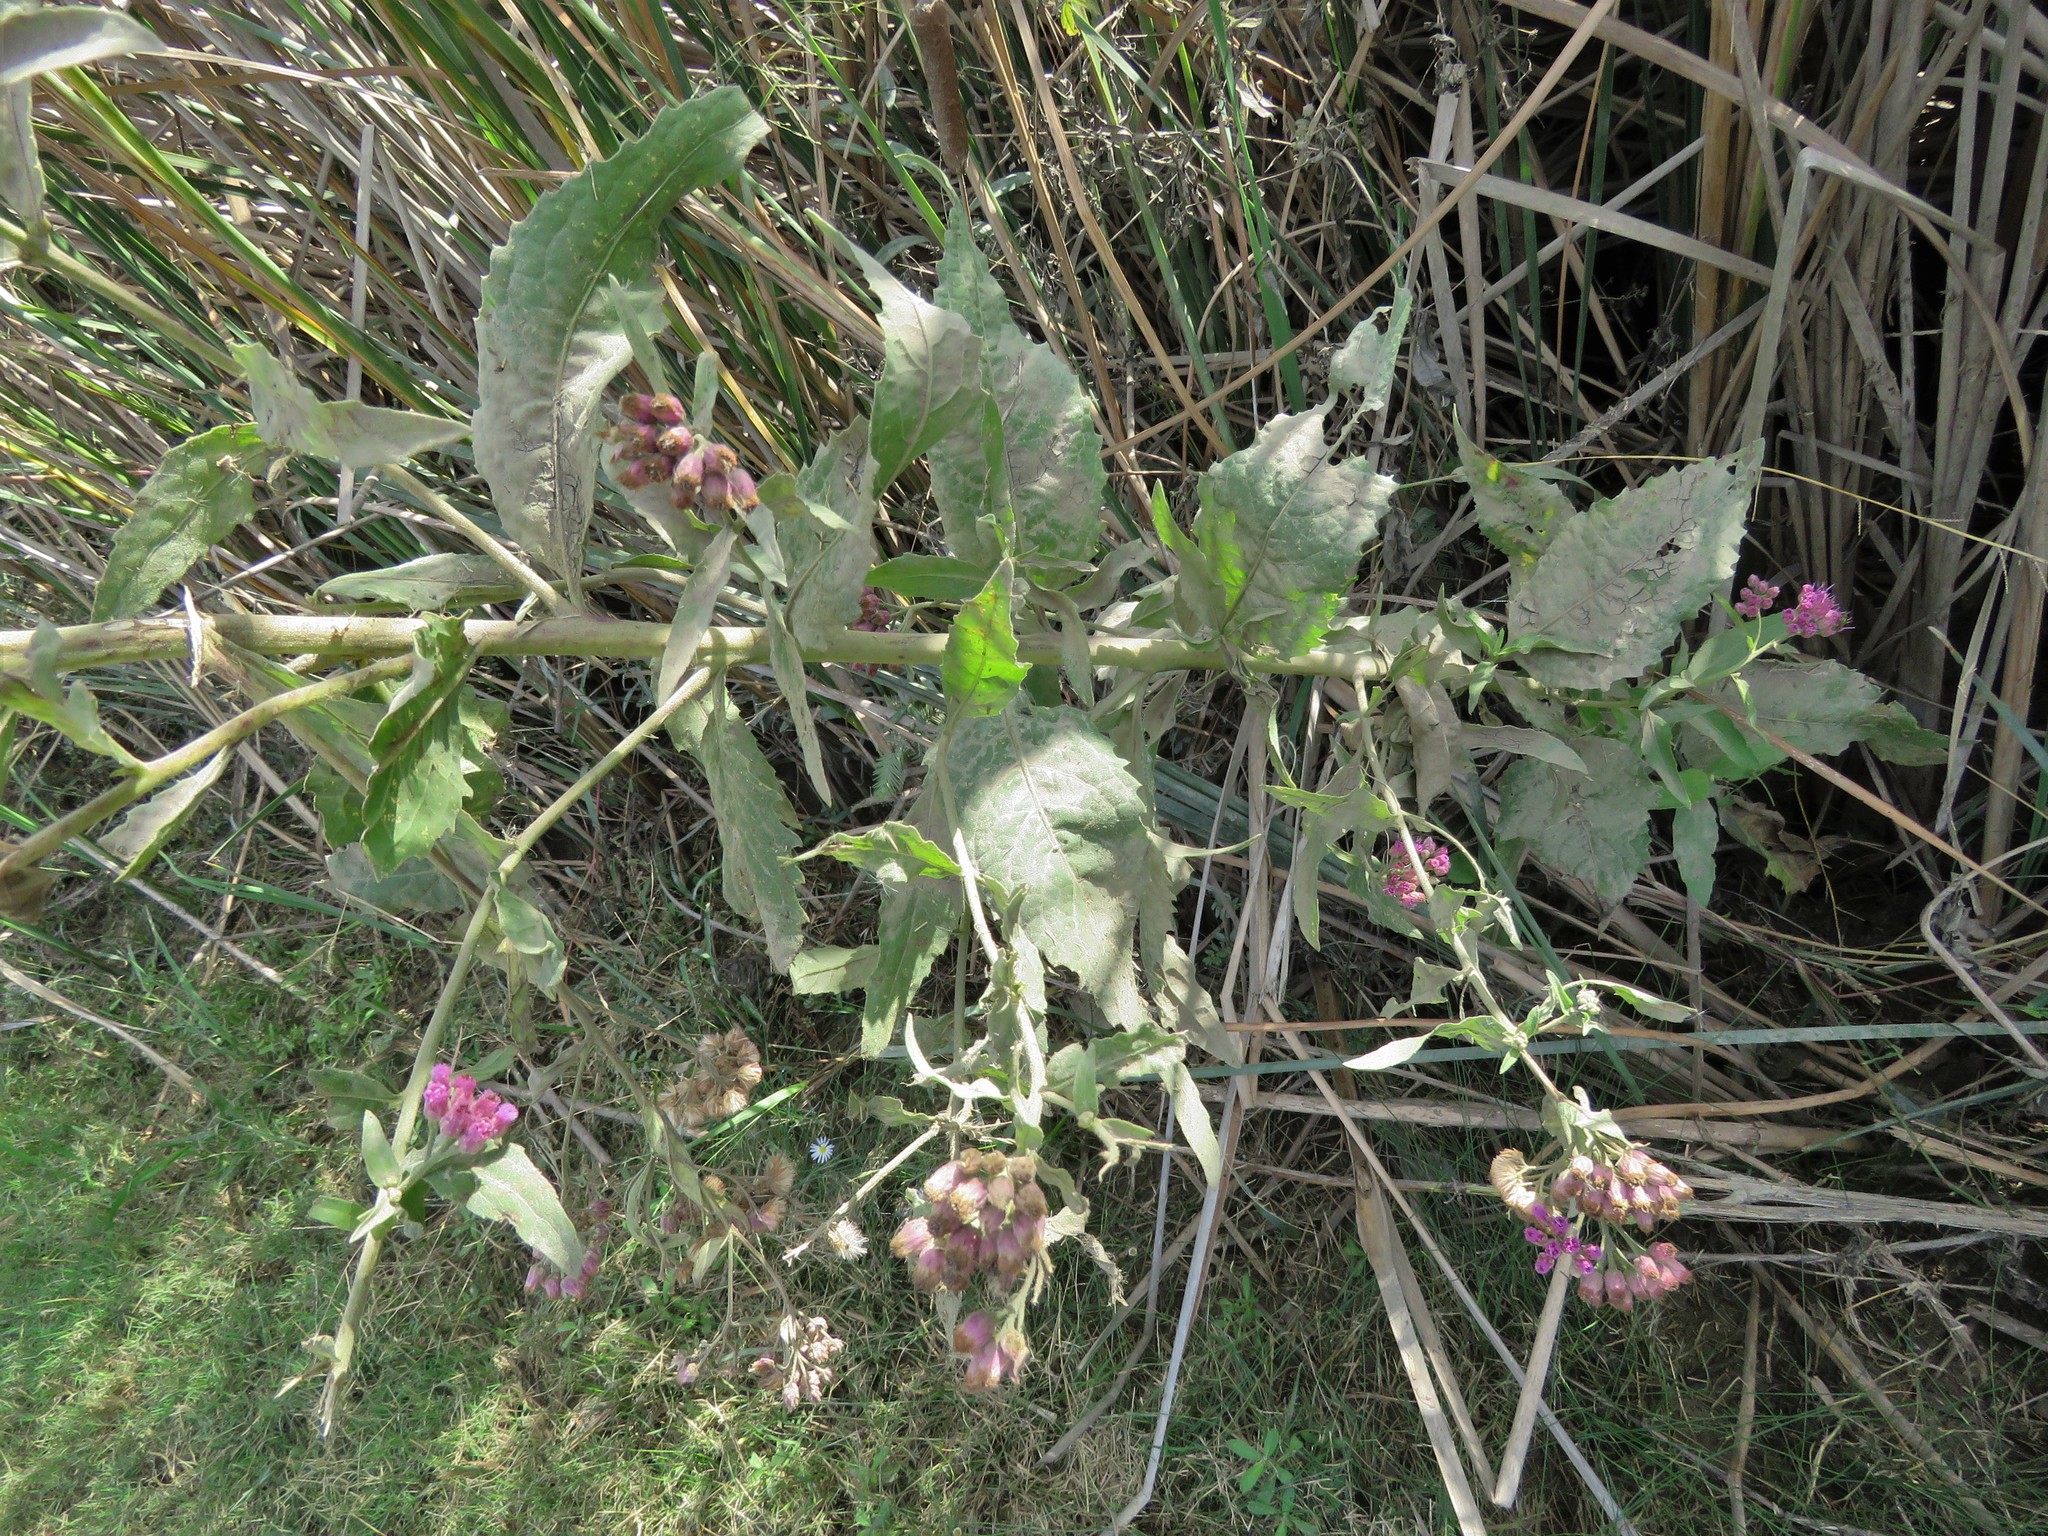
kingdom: Plantae
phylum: Tracheophyta
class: Magnoliopsida
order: Asterales
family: Asteraceae
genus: Pluchea
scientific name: Pluchea odorata
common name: Saltmarsh fleabane
